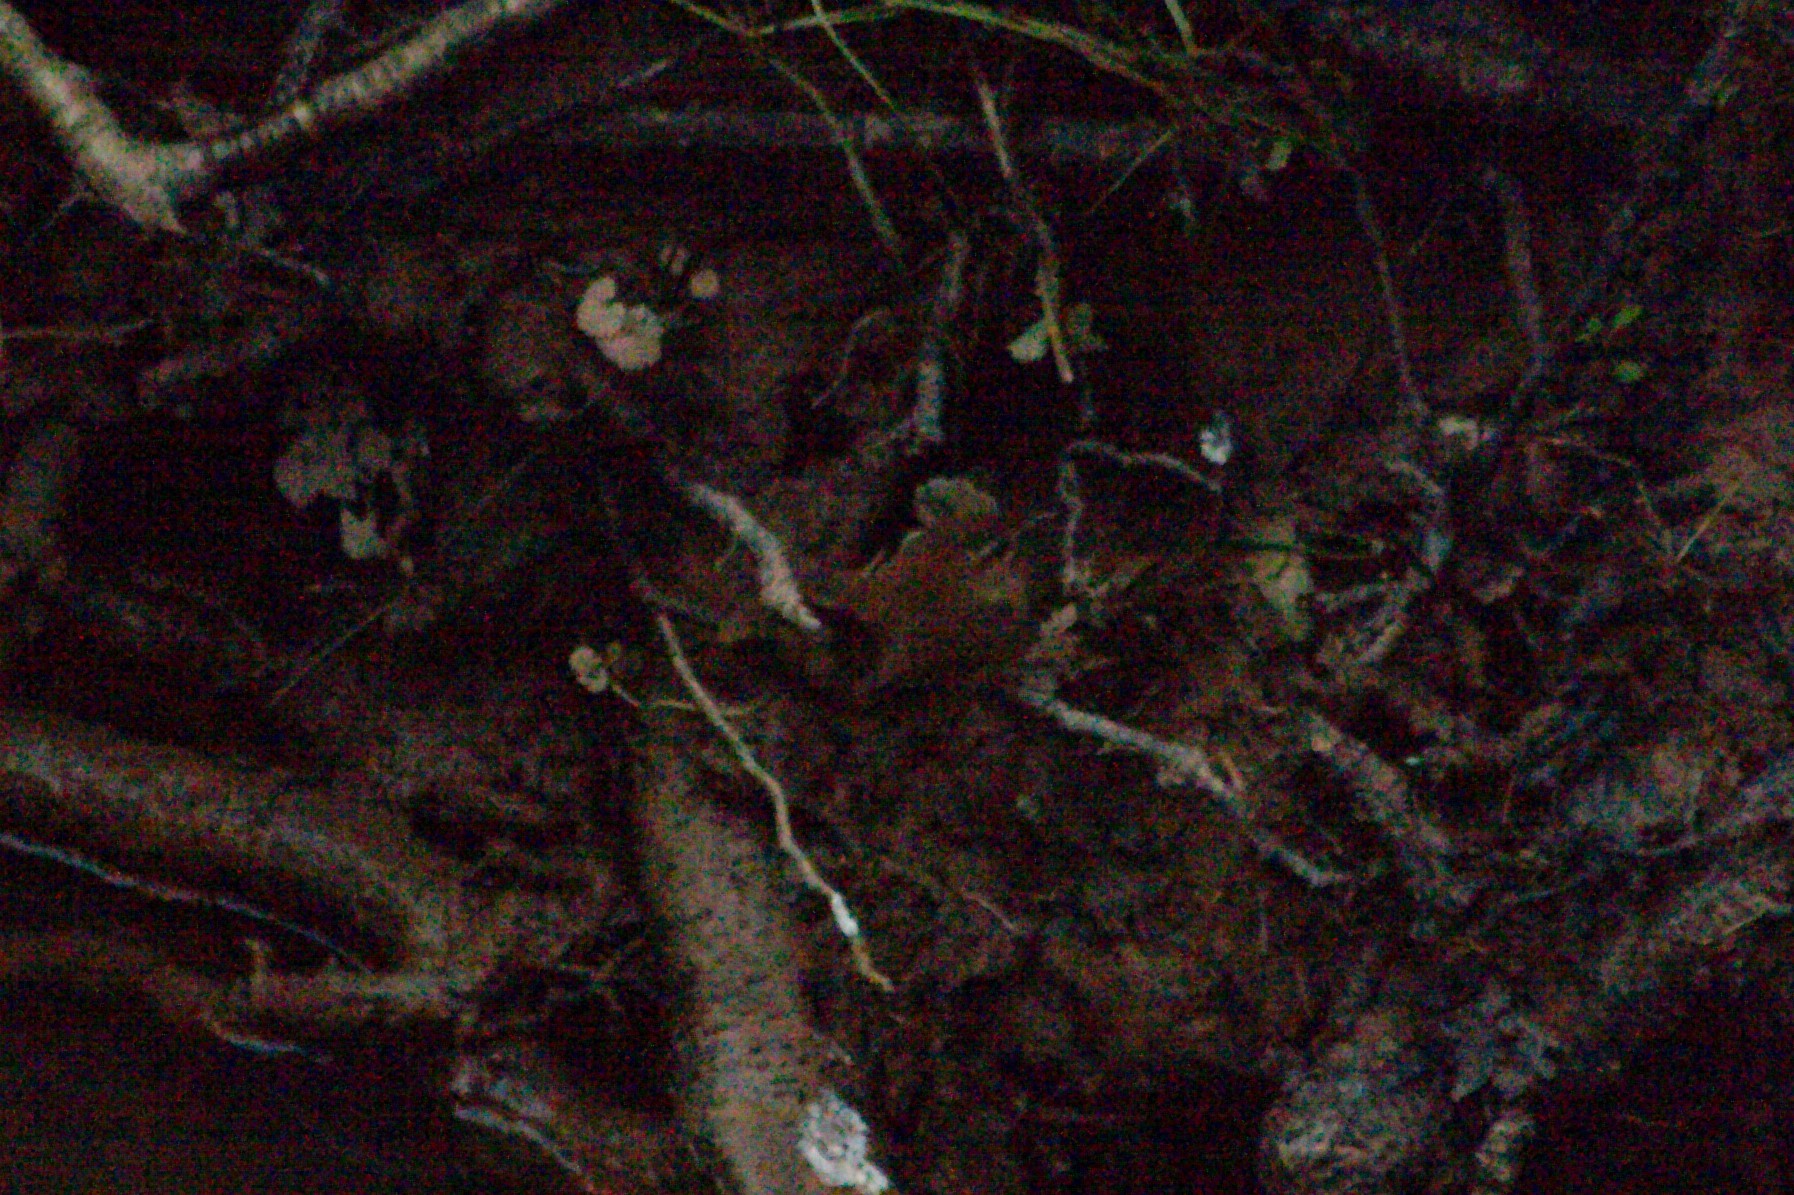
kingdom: Animalia
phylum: Chordata
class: Aves
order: Passeriformes
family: Troglodytidae
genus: Troglodytes
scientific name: Troglodytes troglodytes
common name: Eurasian wren
